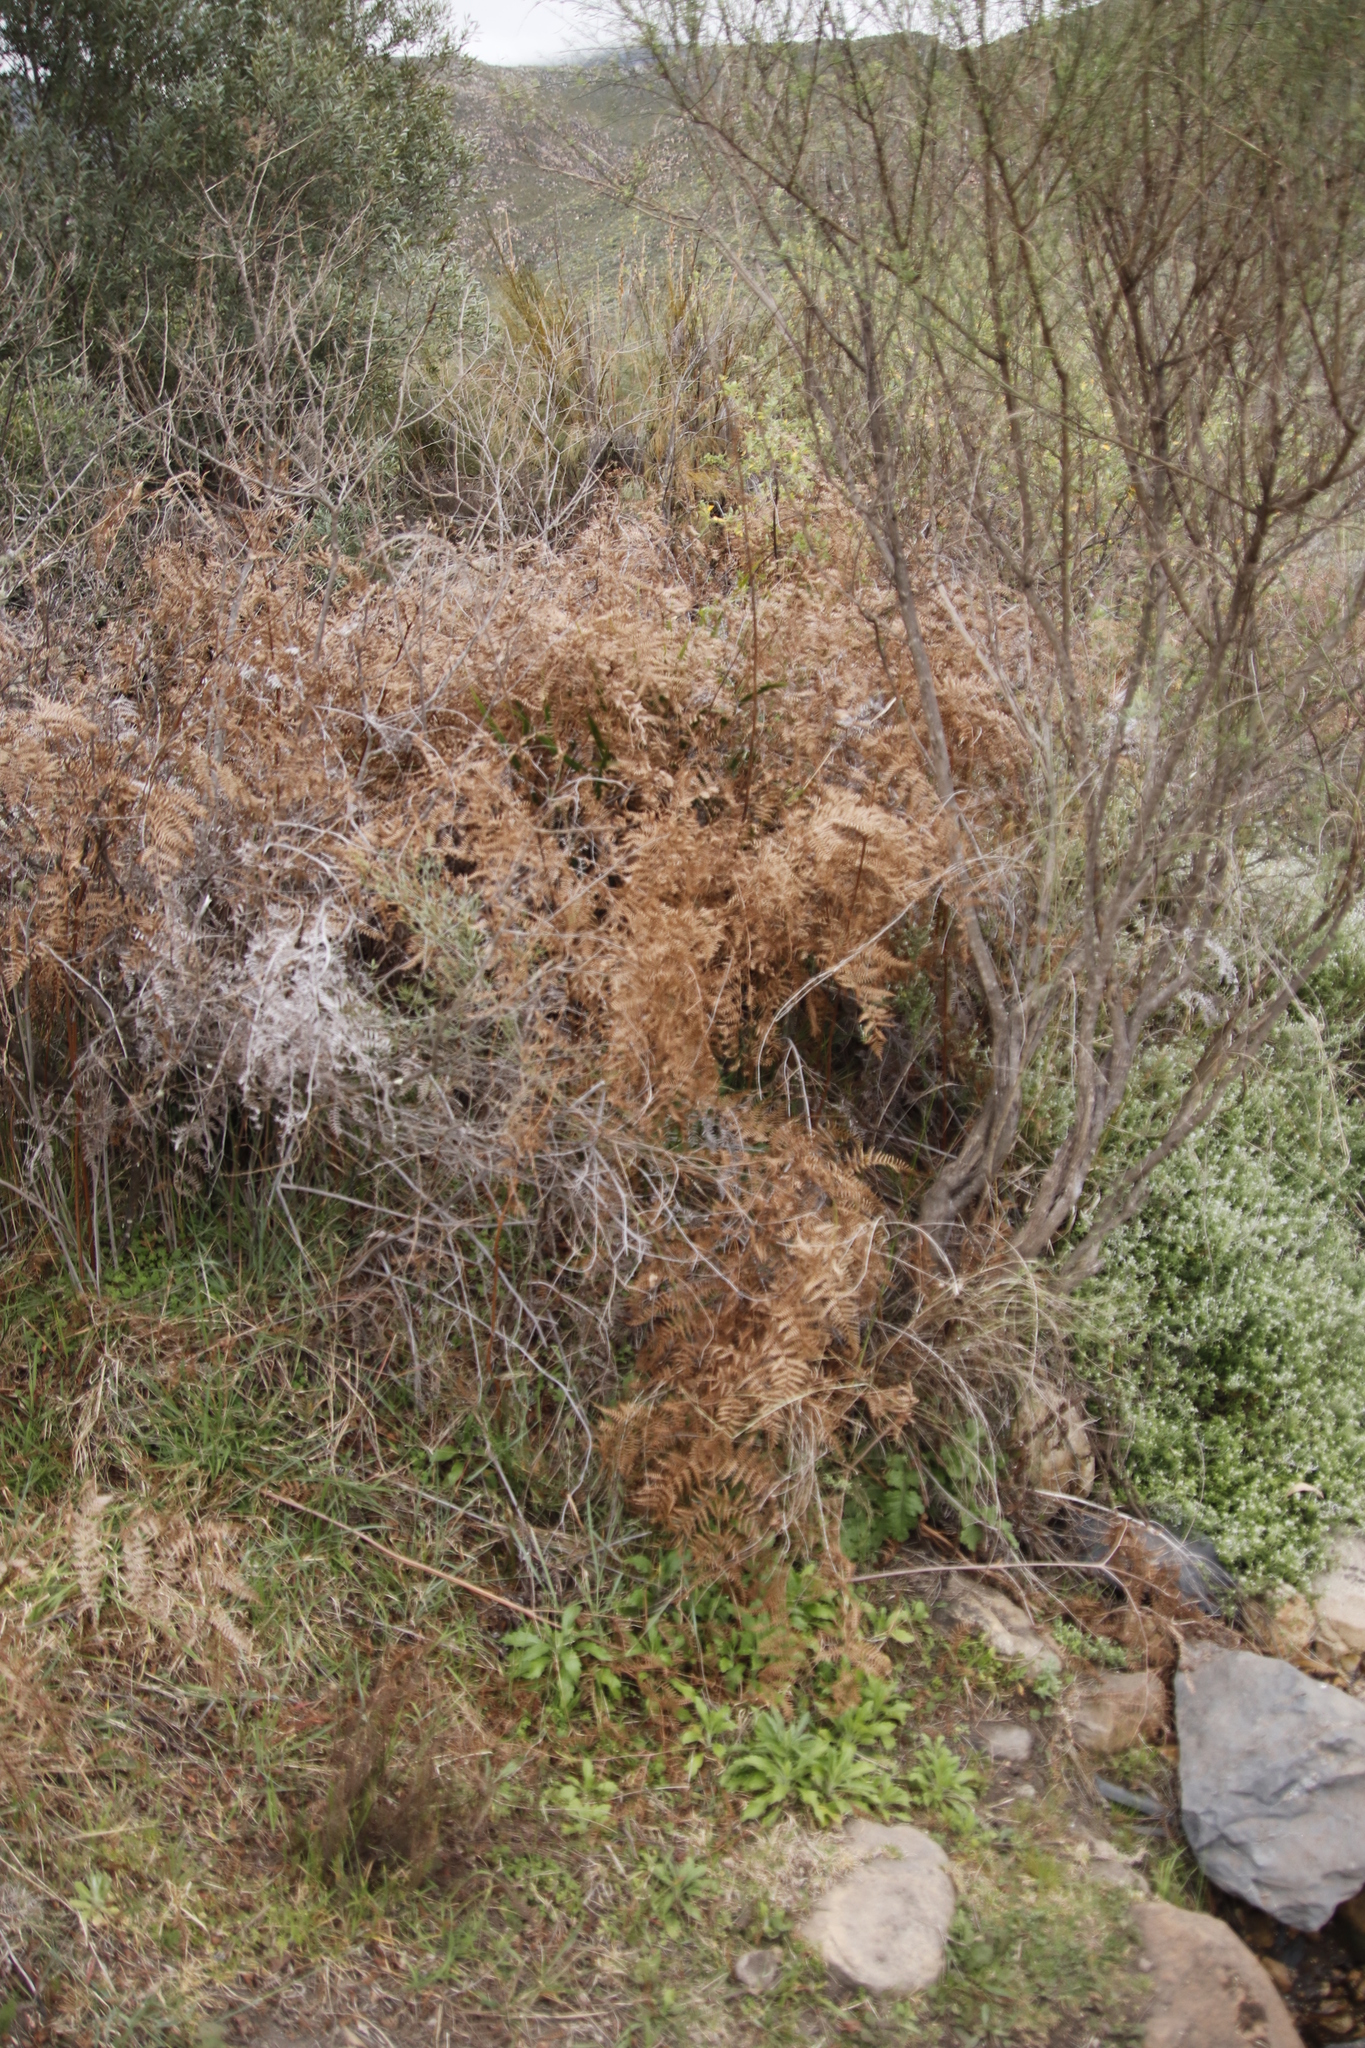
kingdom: Plantae
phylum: Tracheophyta
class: Polypodiopsida
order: Polypodiales
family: Dennstaedtiaceae
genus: Pteridium
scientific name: Pteridium aquilinum
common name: Bracken
